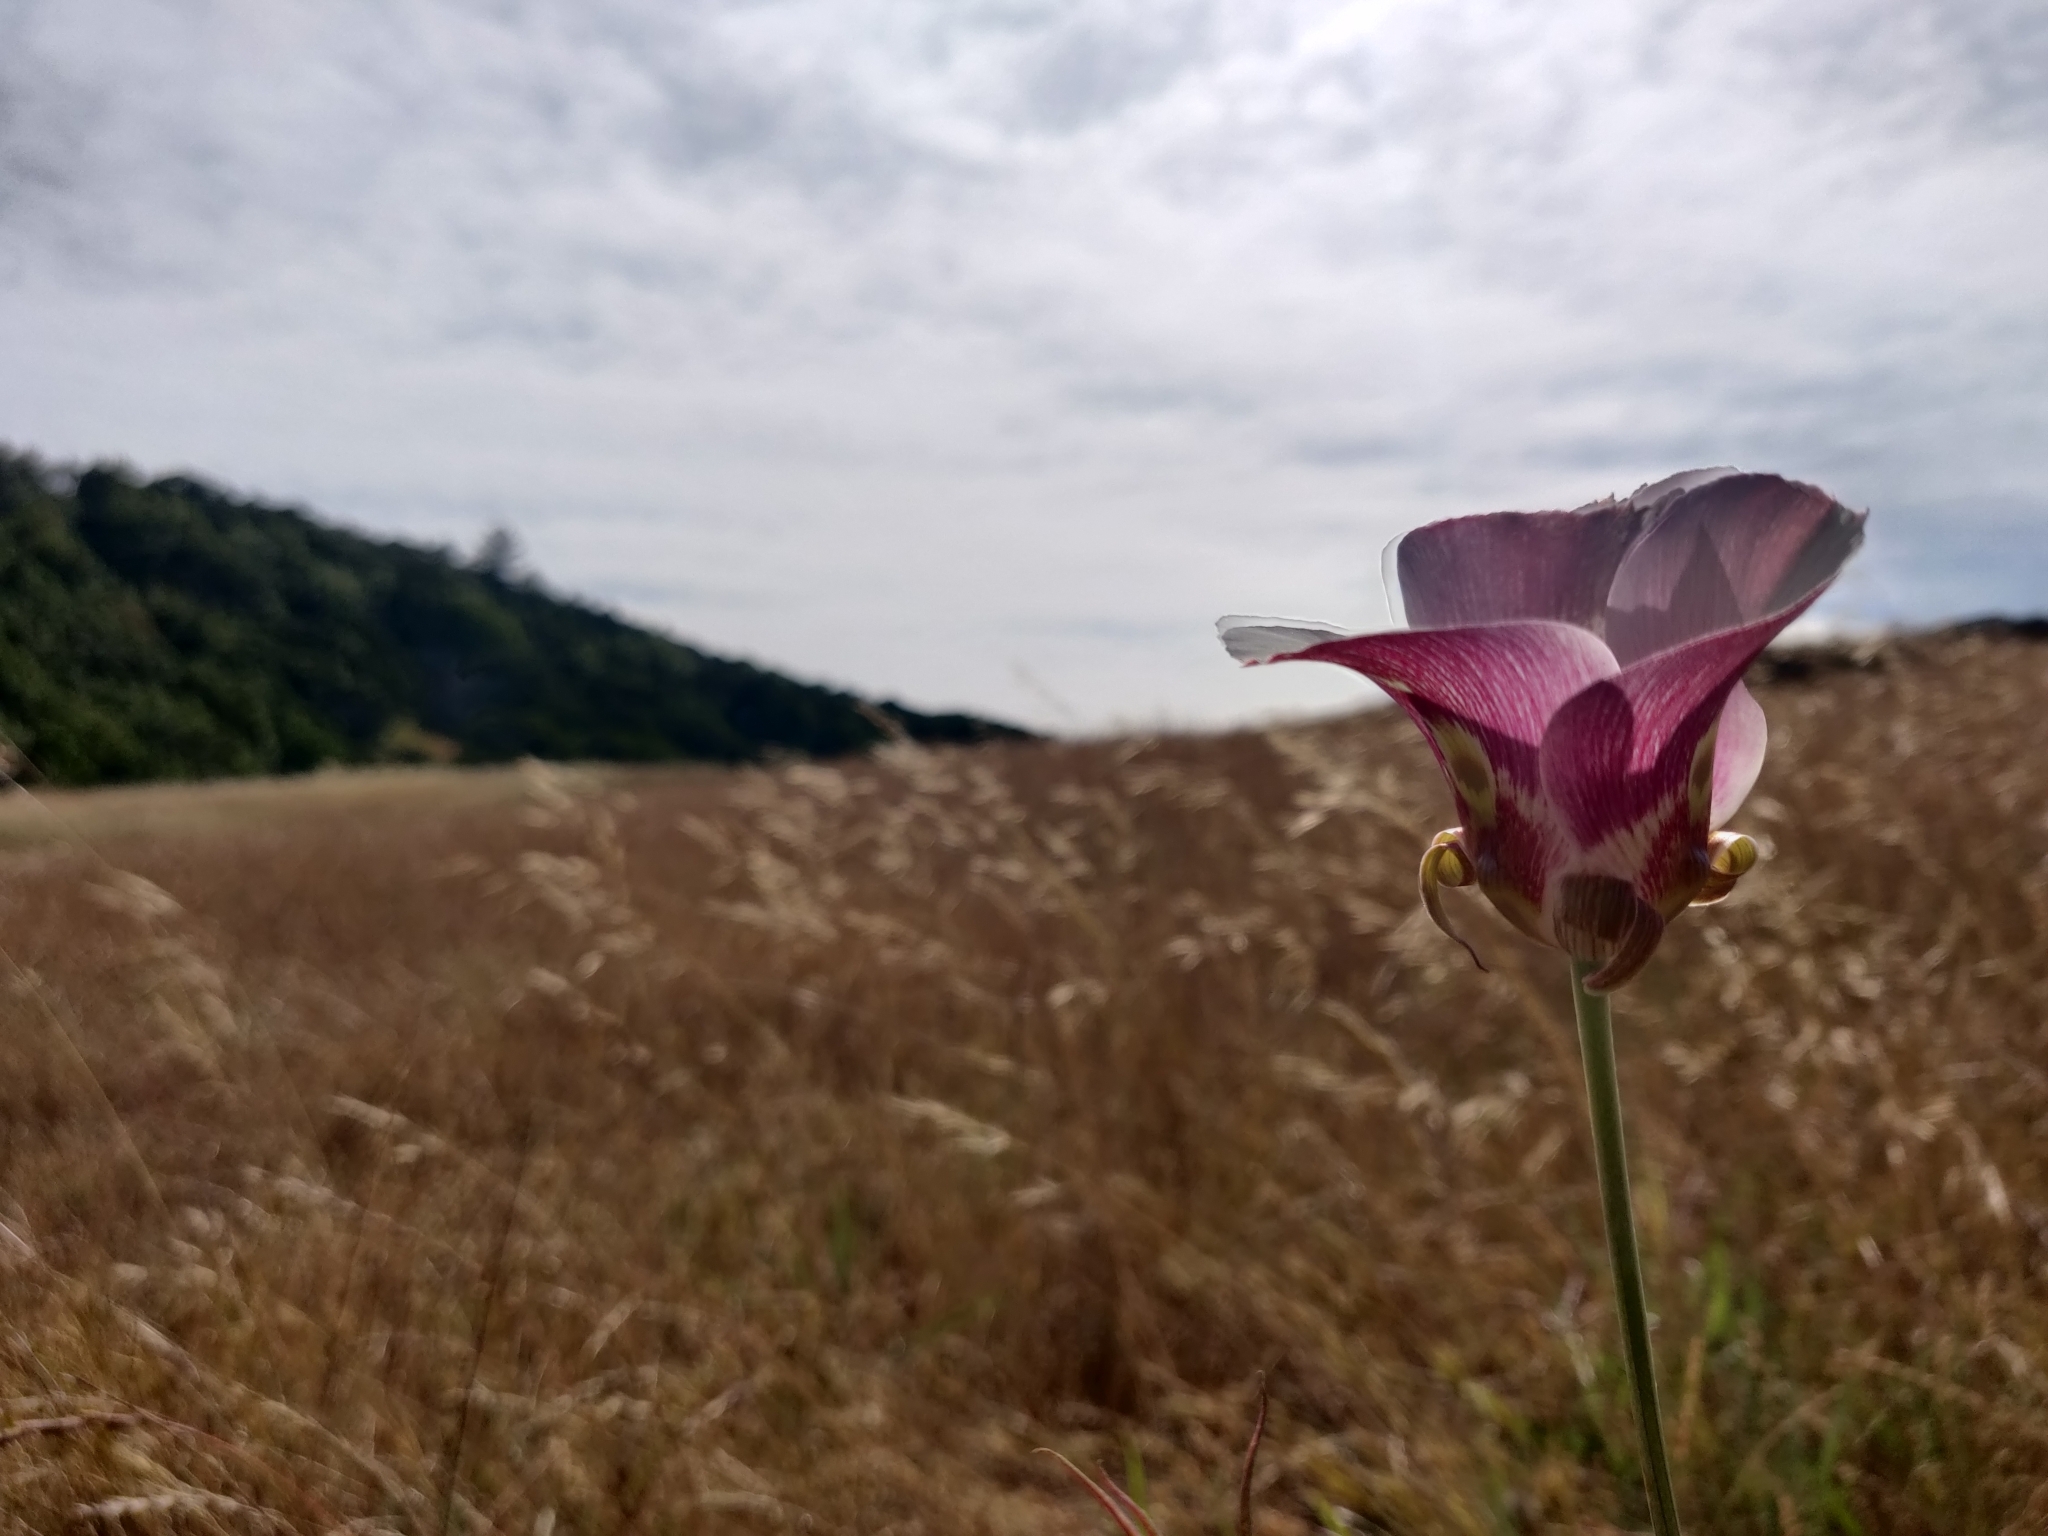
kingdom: Plantae
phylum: Tracheophyta
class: Liliopsida
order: Liliales
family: Liliaceae
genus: Calochortus
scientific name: Calochortus argillosus
